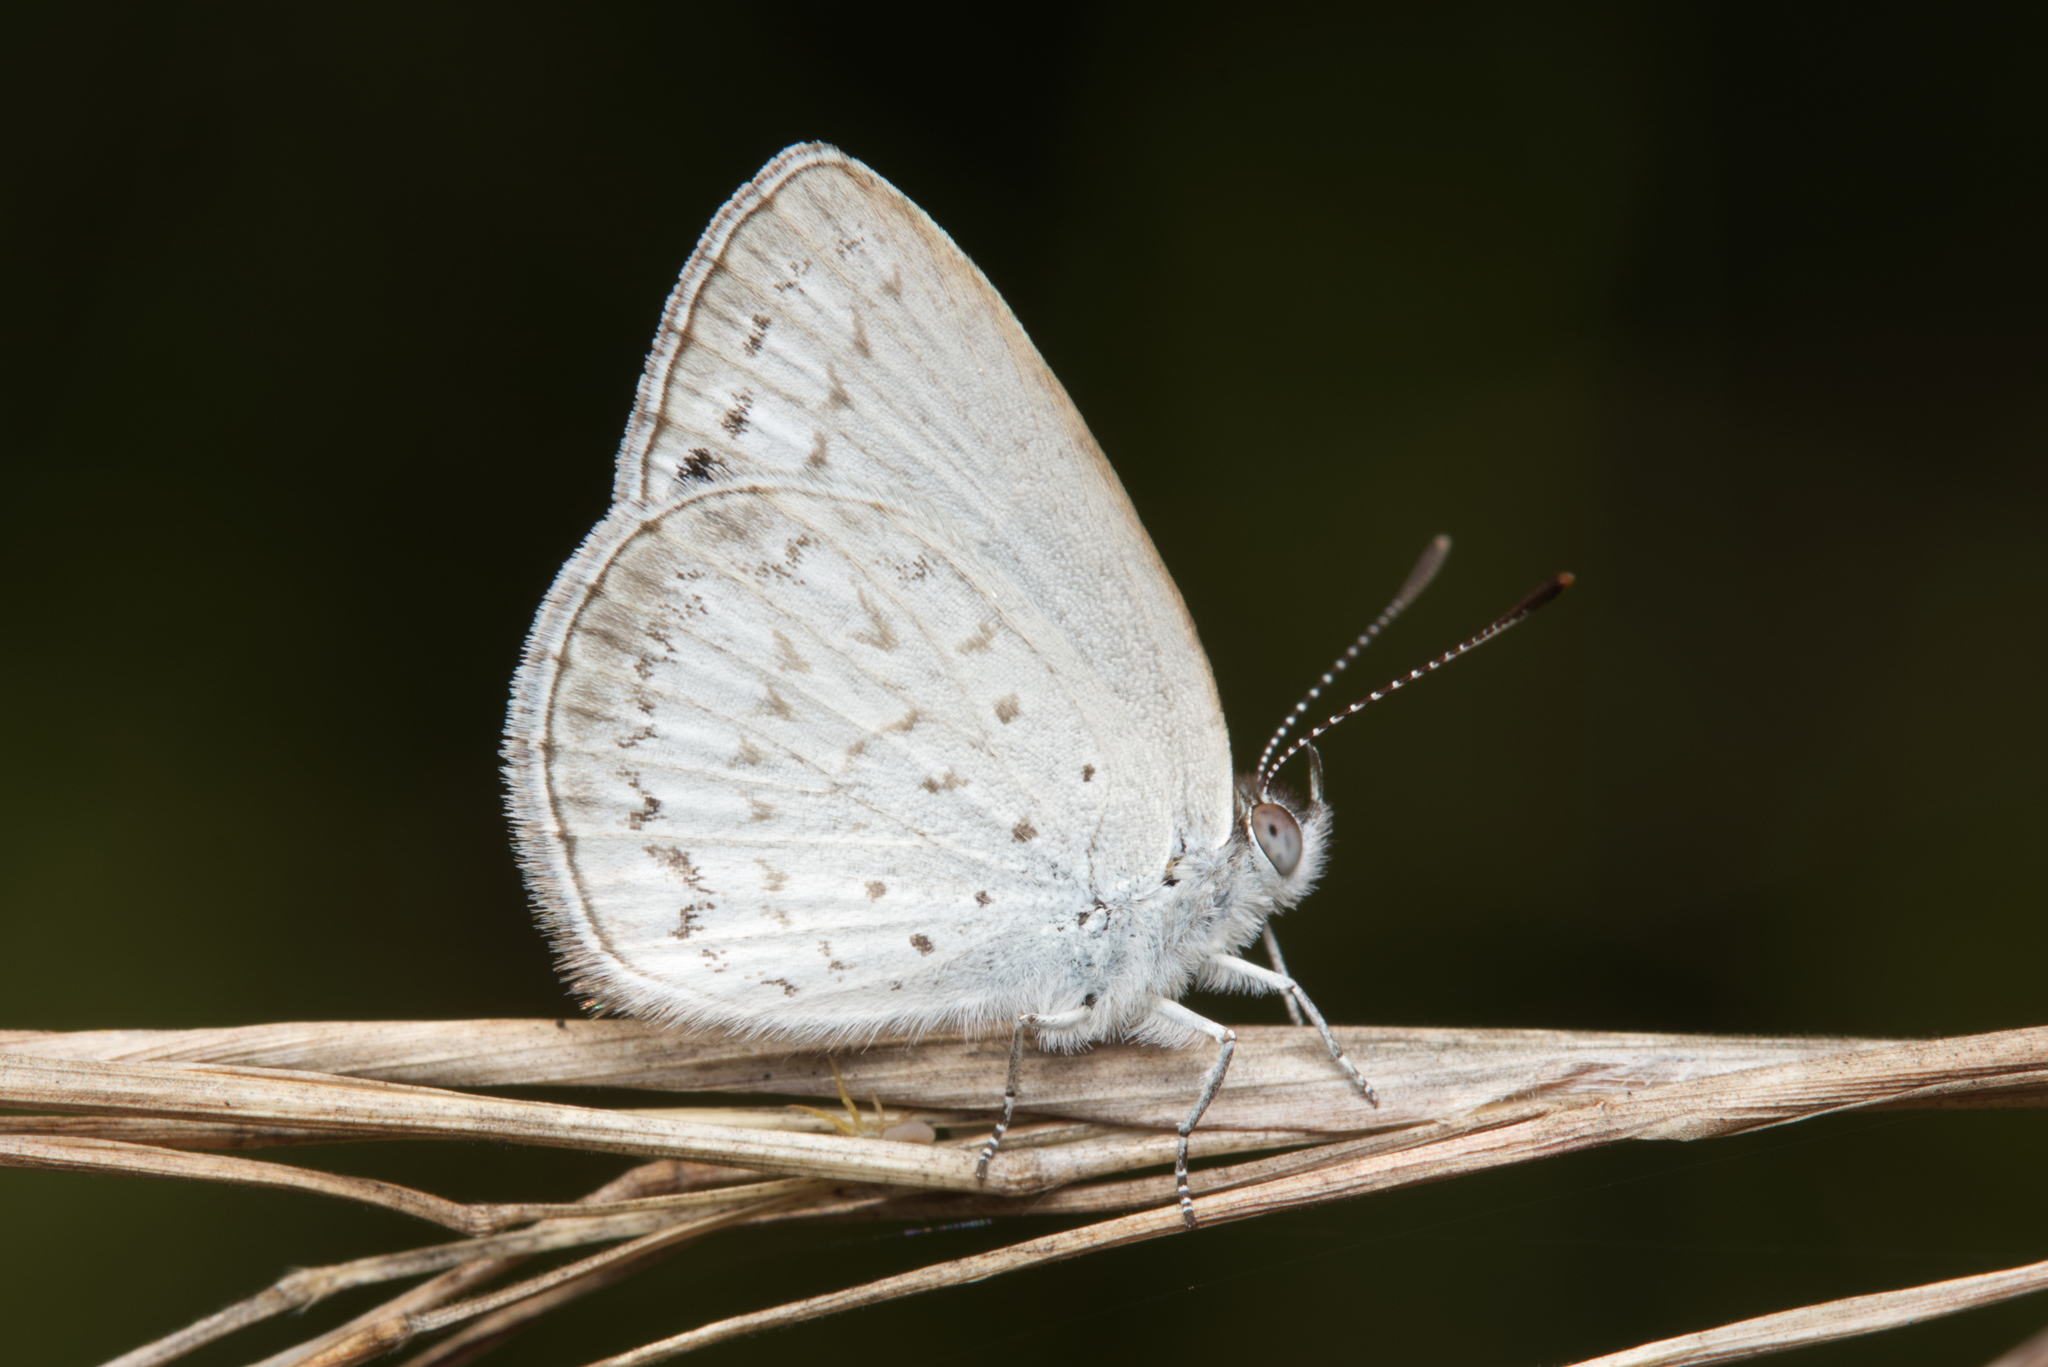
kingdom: Animalia
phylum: Arthropoda
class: Insecta
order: Lepidoptera
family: Lycaenidae
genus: Candalides
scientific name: Candalides
